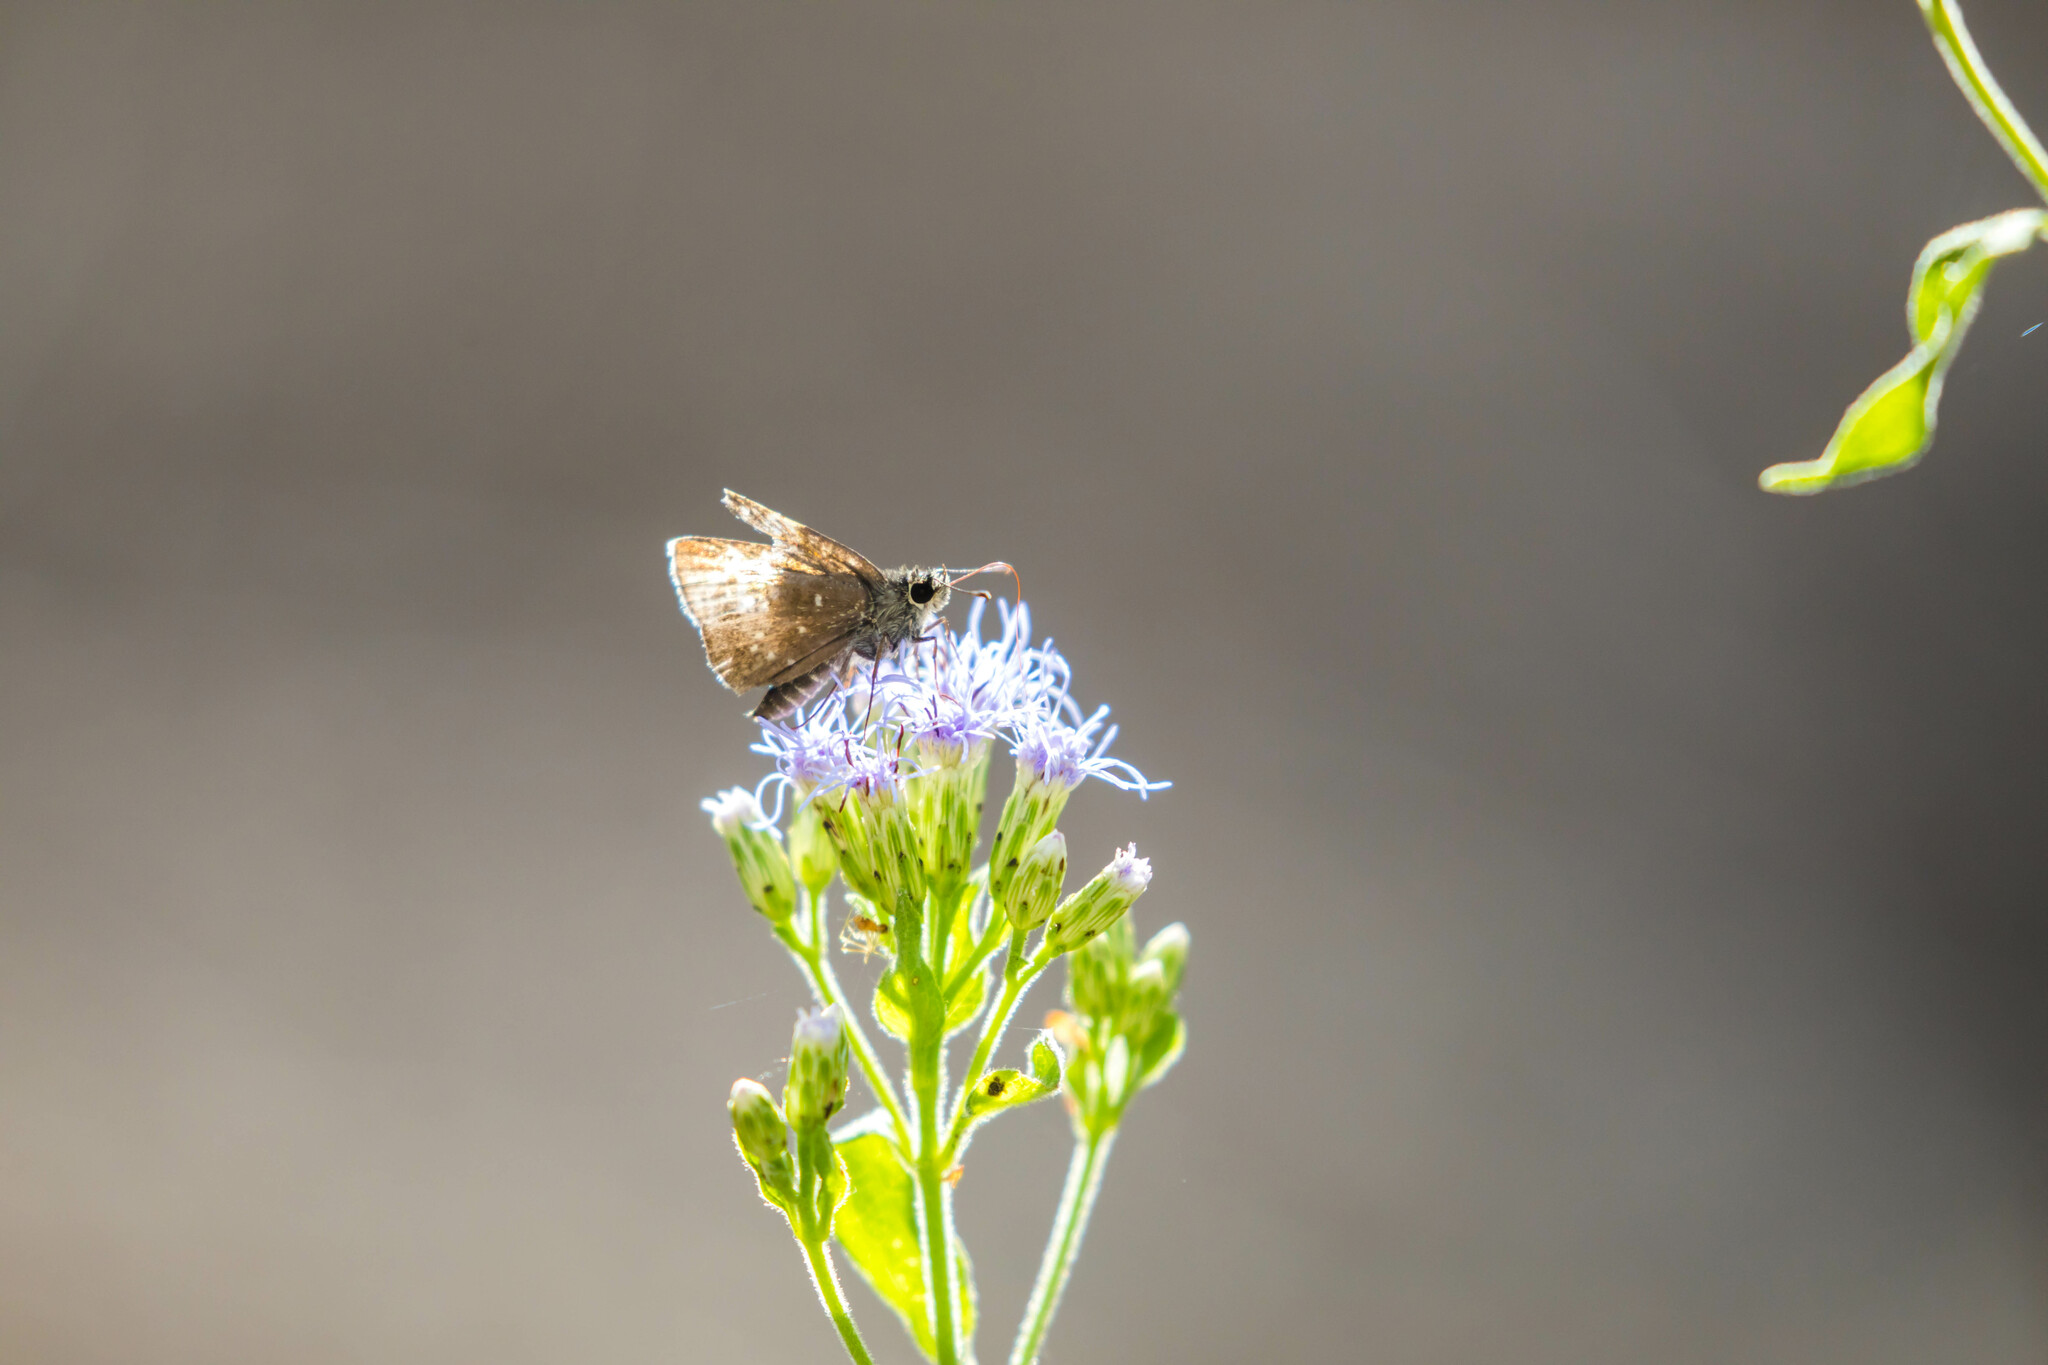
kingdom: Animalia
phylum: Arthropoda
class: Insecta
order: Lepidoptera
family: Hesperiidae
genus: Mastor
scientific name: Mastor celia
